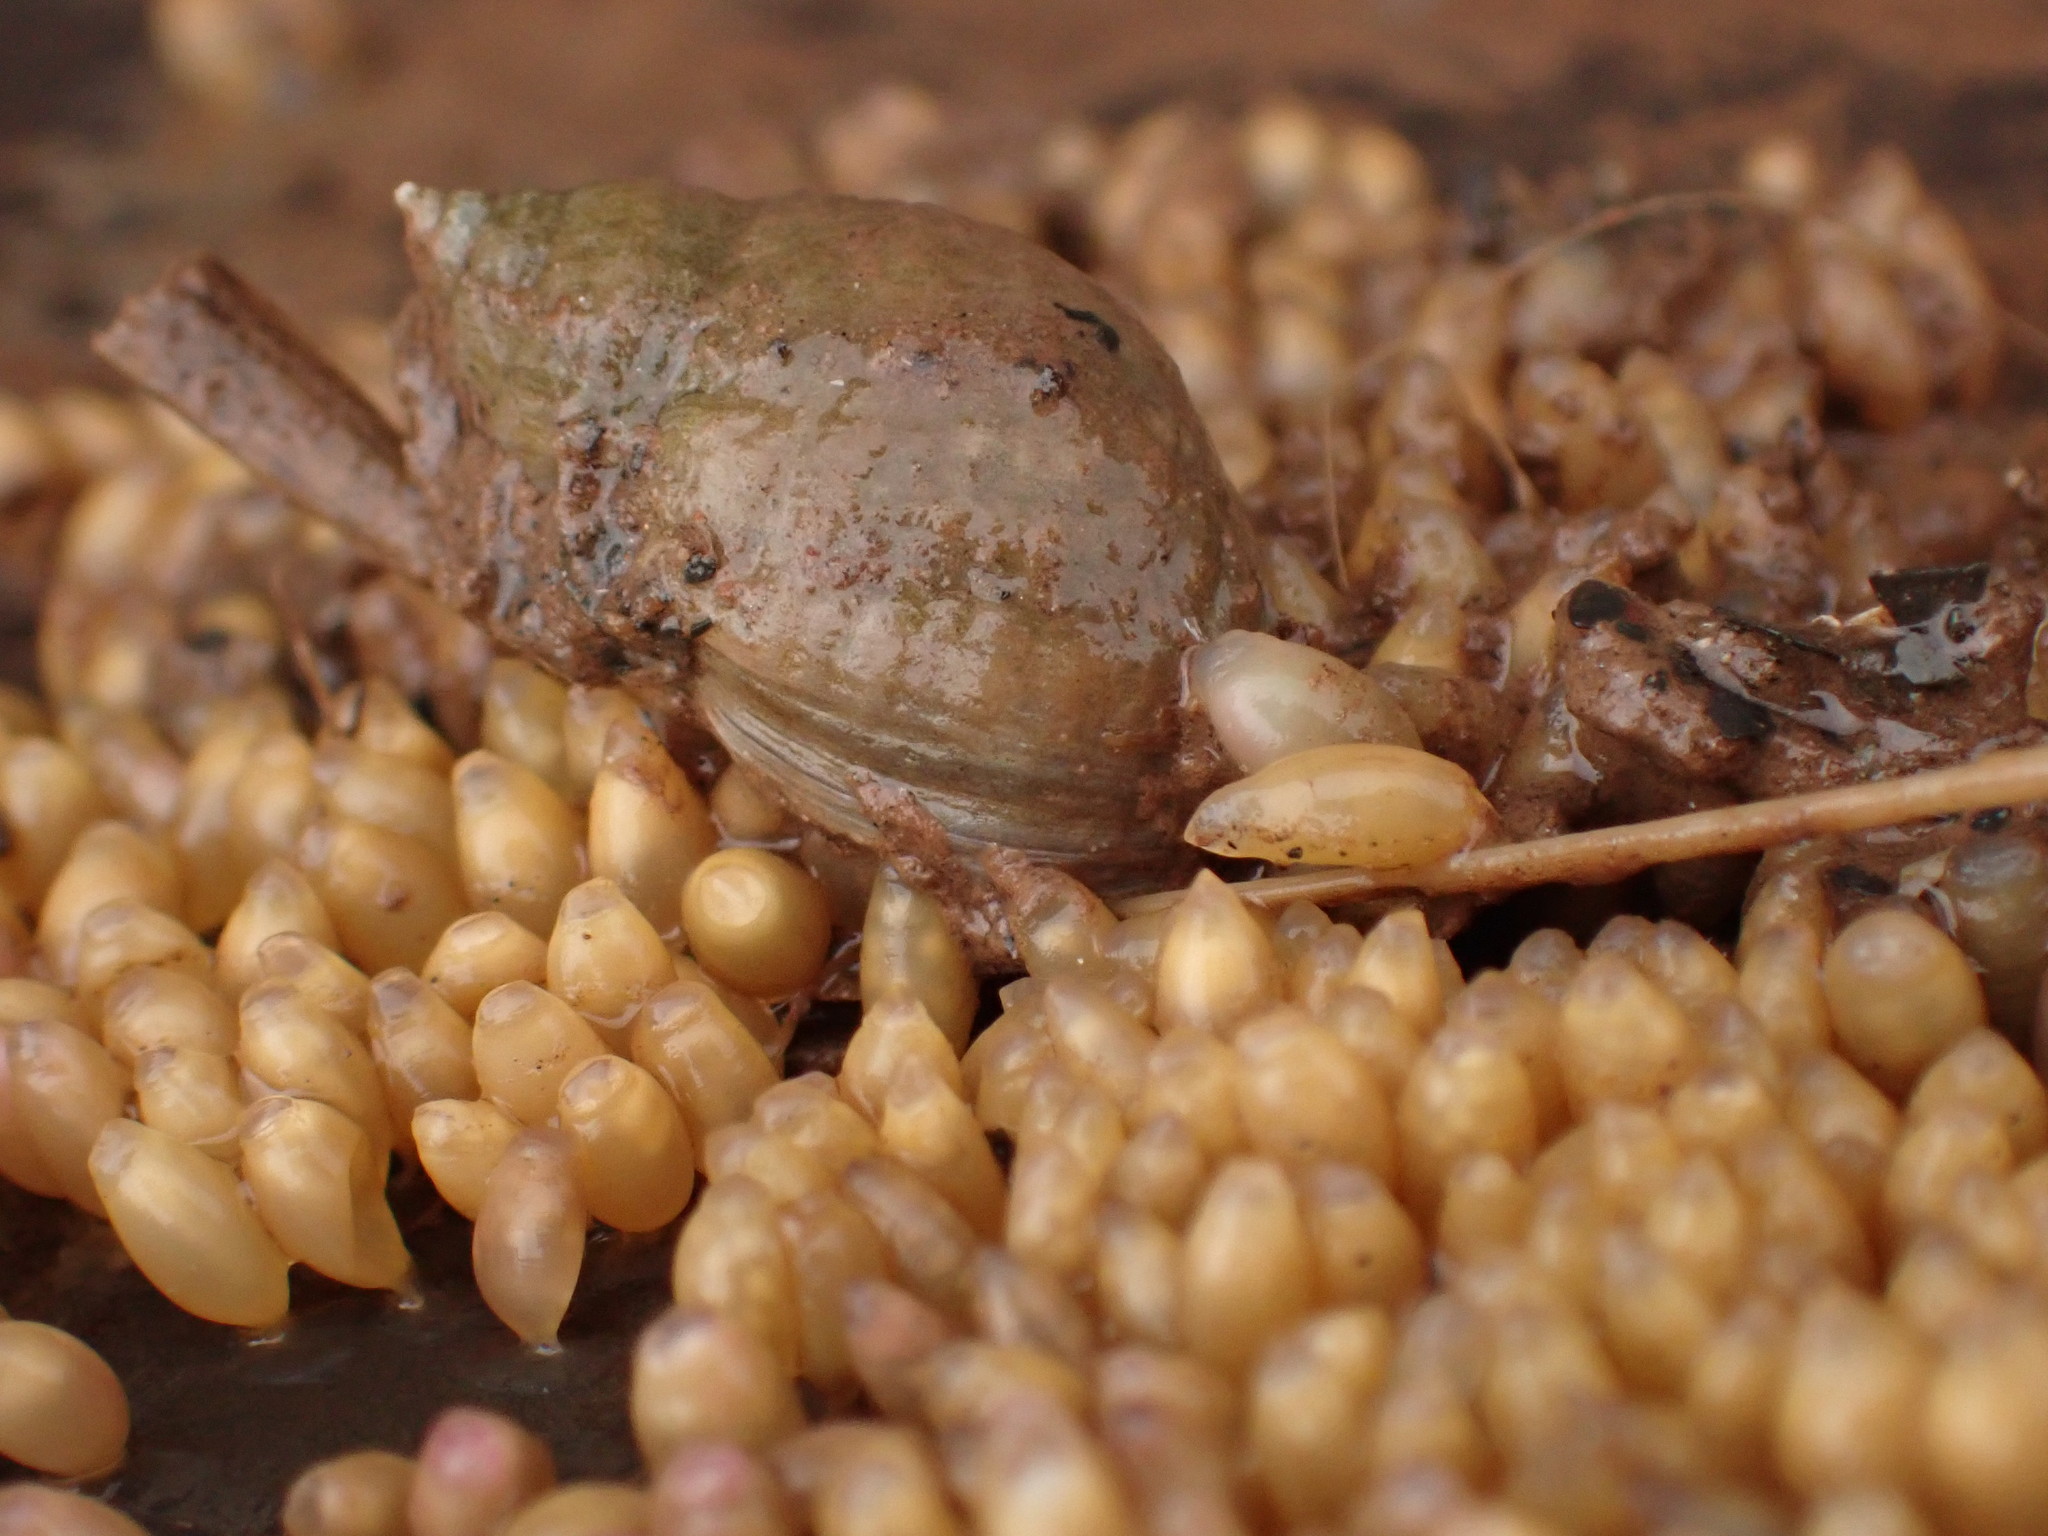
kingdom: Animalia
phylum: Mollusca
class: Gastropoda
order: Neogastropoda
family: Muricidae
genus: Nucella
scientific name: Nucella lapillus
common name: Dog whelk
